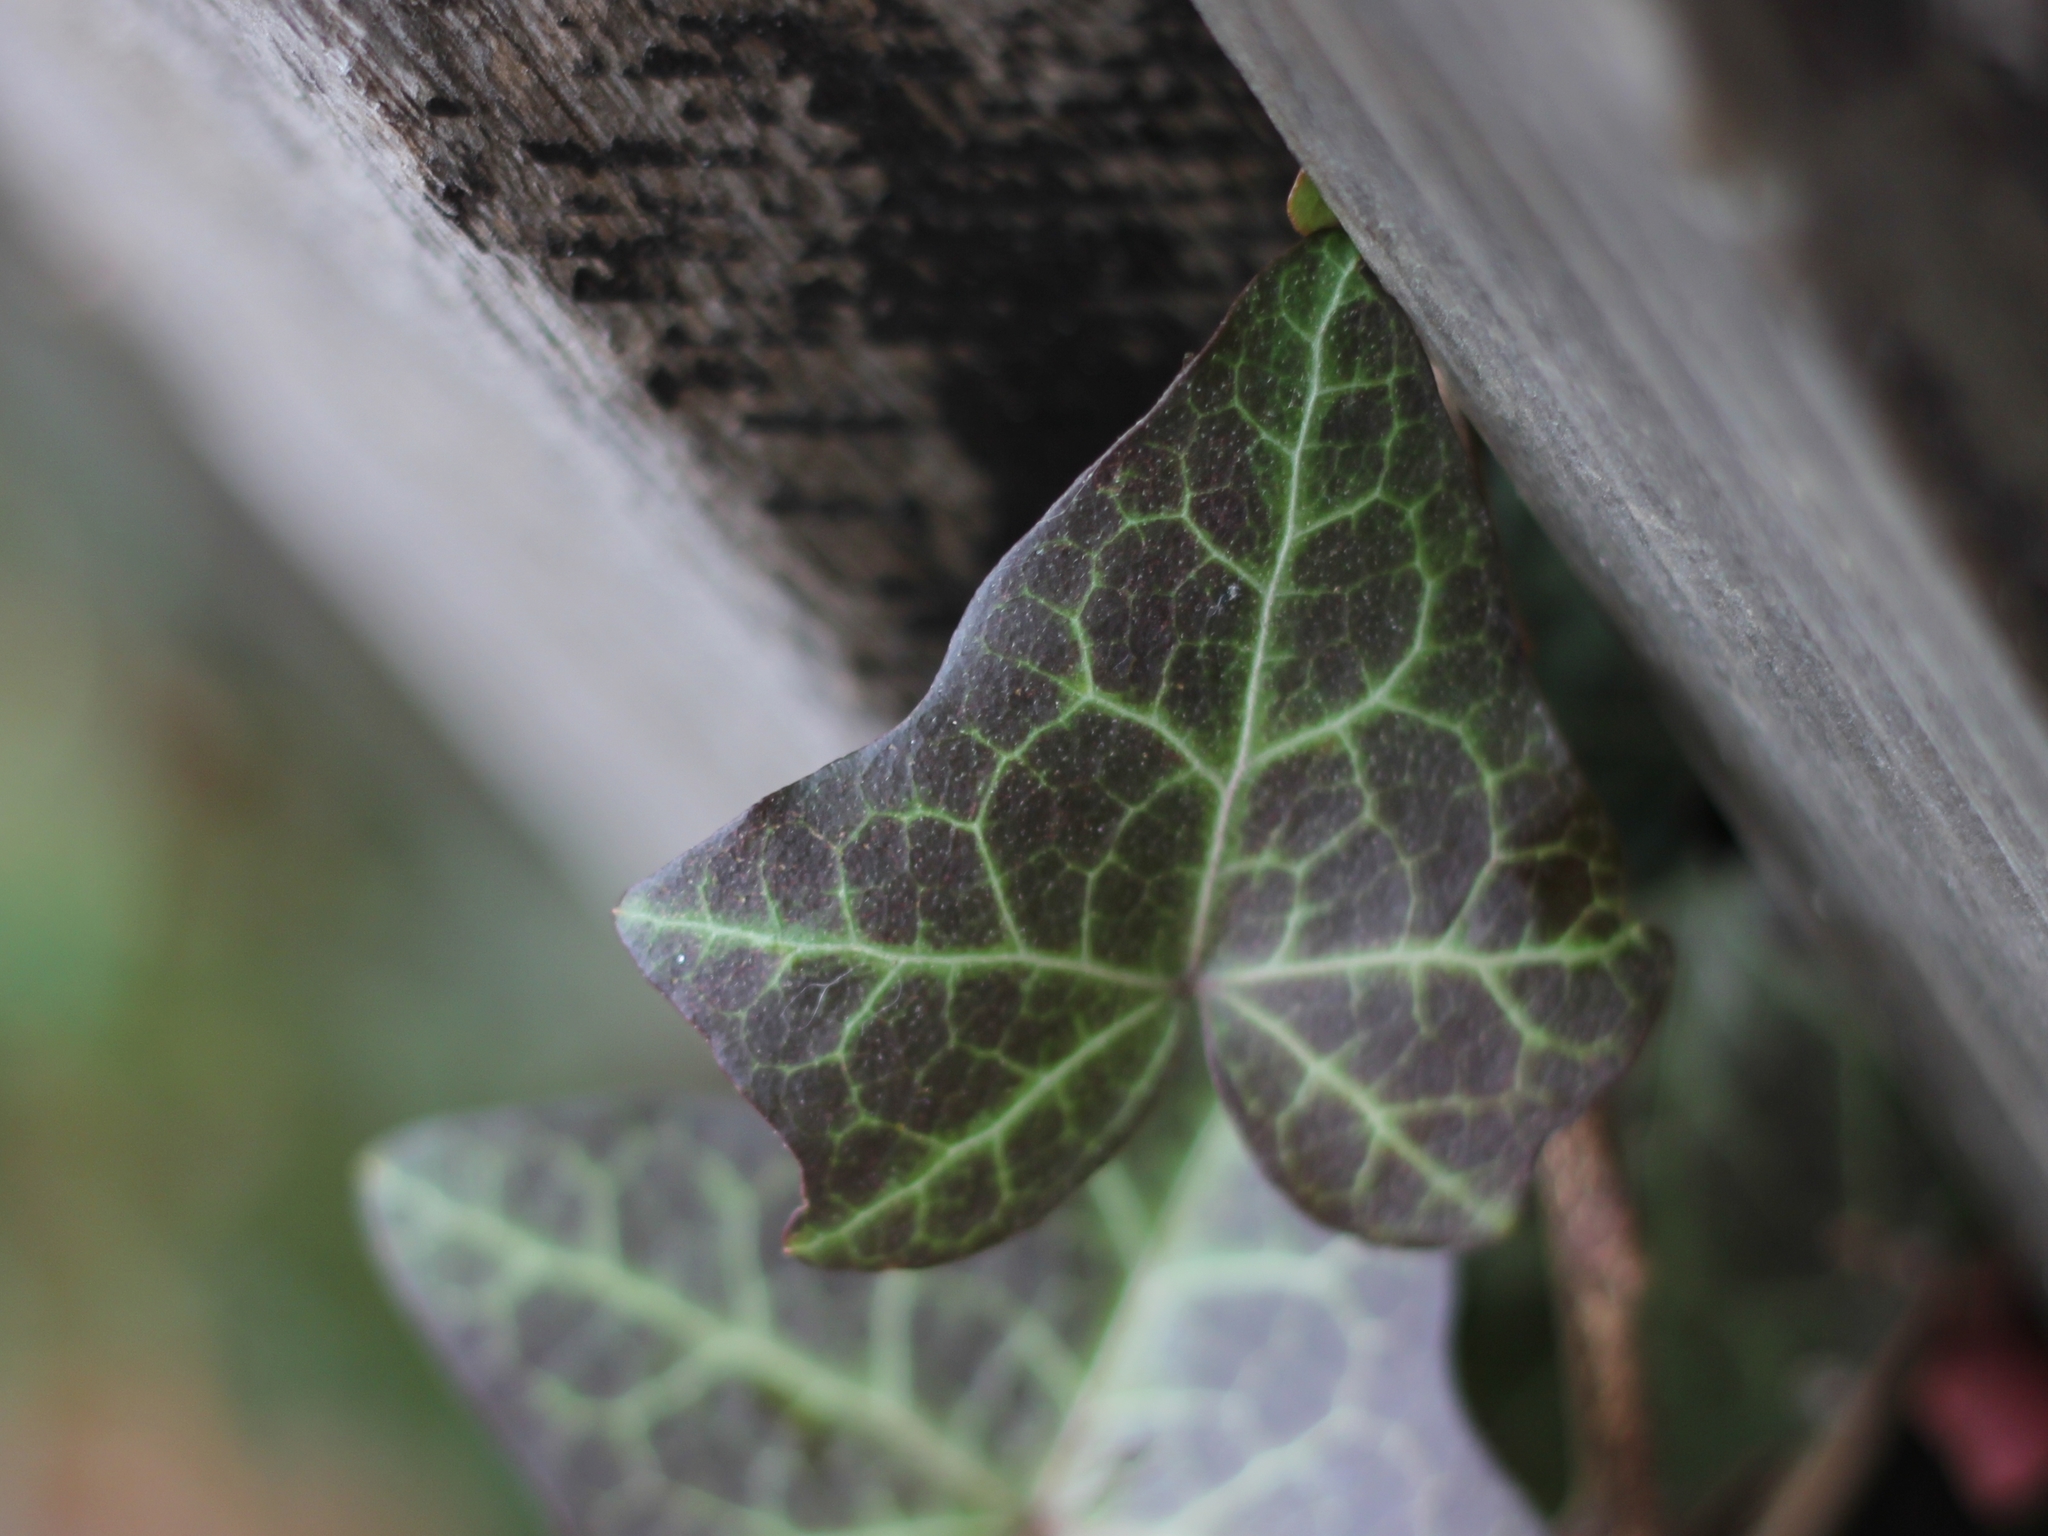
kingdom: Plantae
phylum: Tracheophyta
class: Magnoliopsida
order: Apiales
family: Araliaceae
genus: Hedera
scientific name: Hedera helix
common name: Ivy
